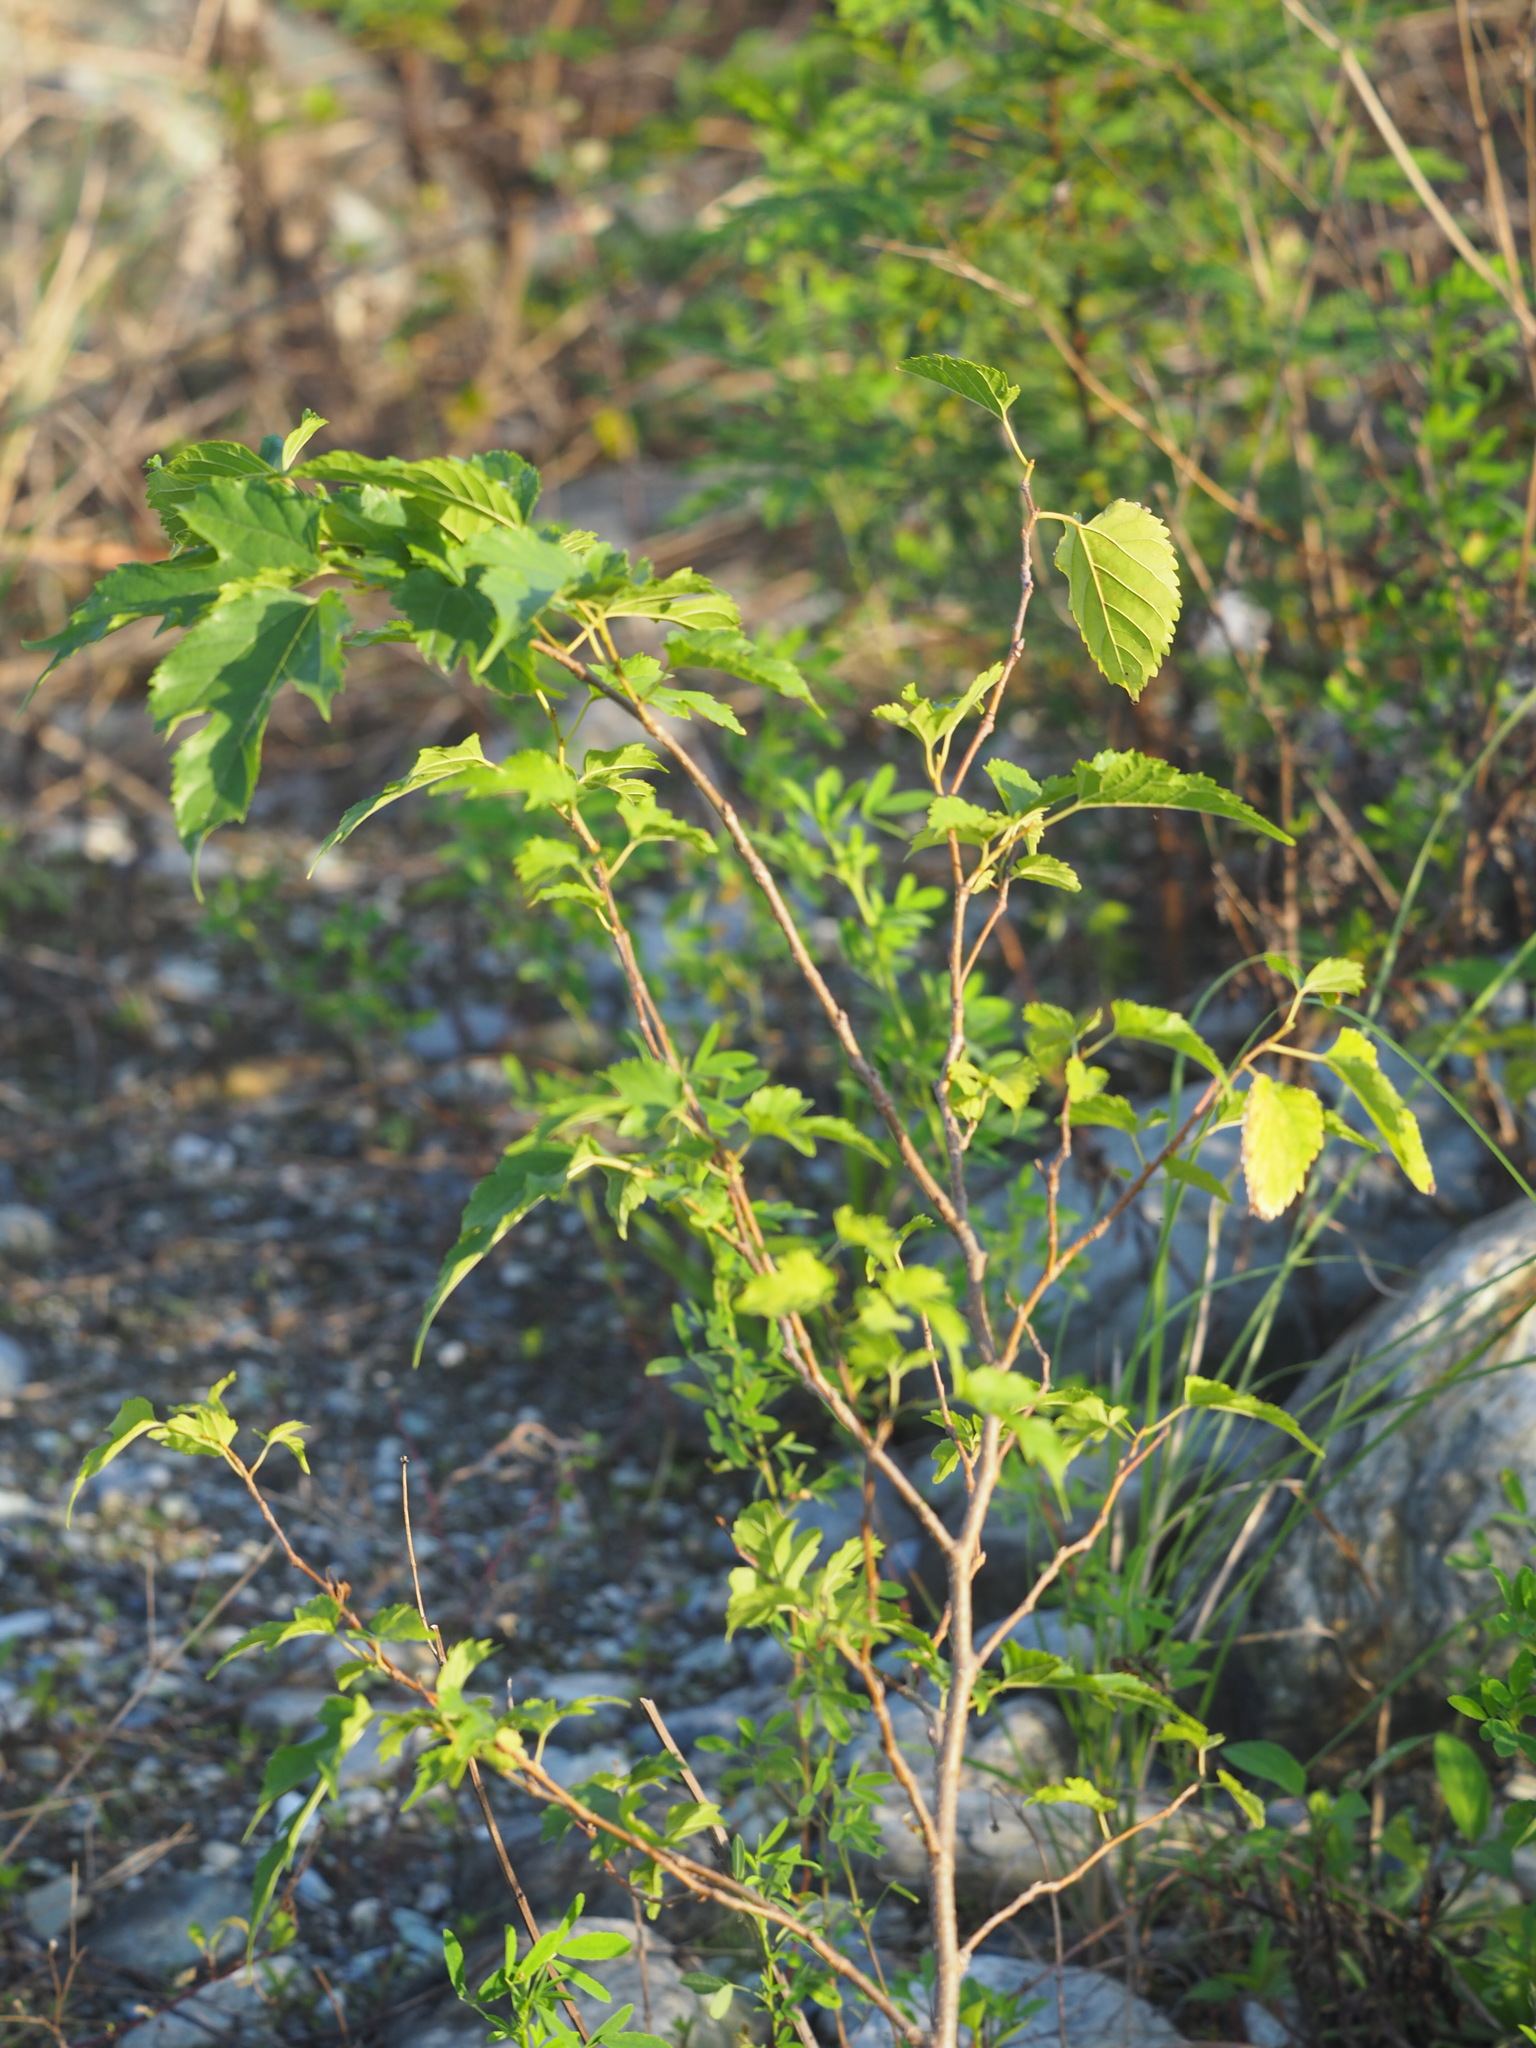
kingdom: Plantae
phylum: Tracheophyta
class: Magnoliopsida
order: Rosales
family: Moraceae
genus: Morus
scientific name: Morus indica
